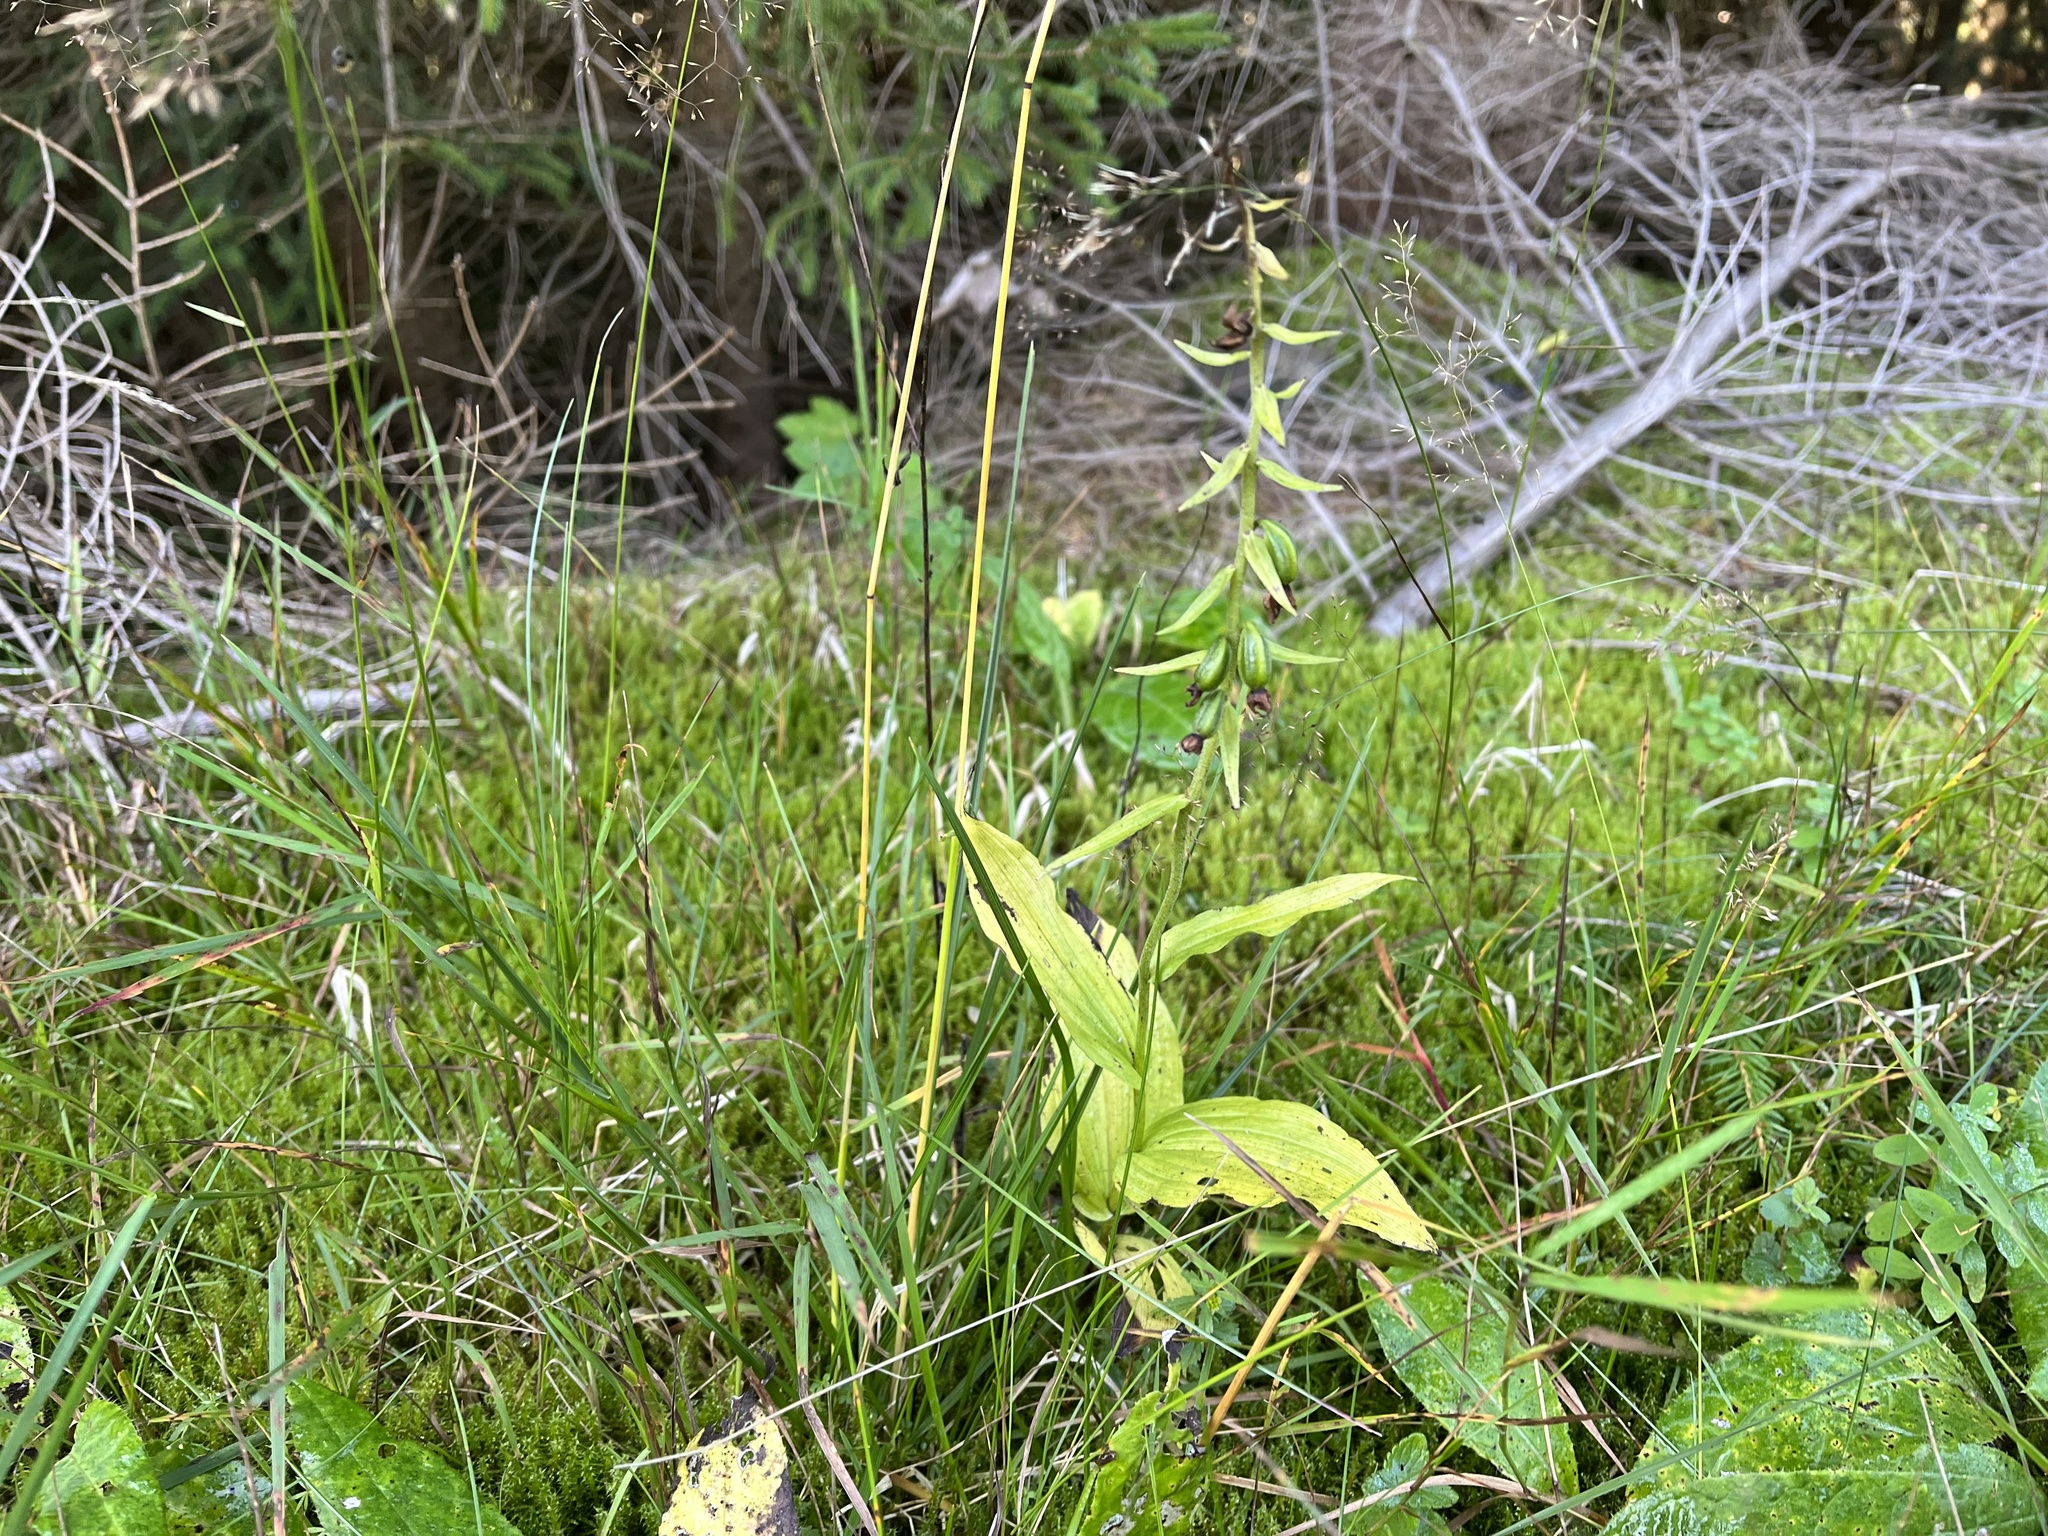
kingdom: Plantae
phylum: Tracheophyta
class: Liliopsida
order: Asparagales
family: Orchidaceae
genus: Epipactis
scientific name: Epipactis helleborine
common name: Broad-leaved helleborine
